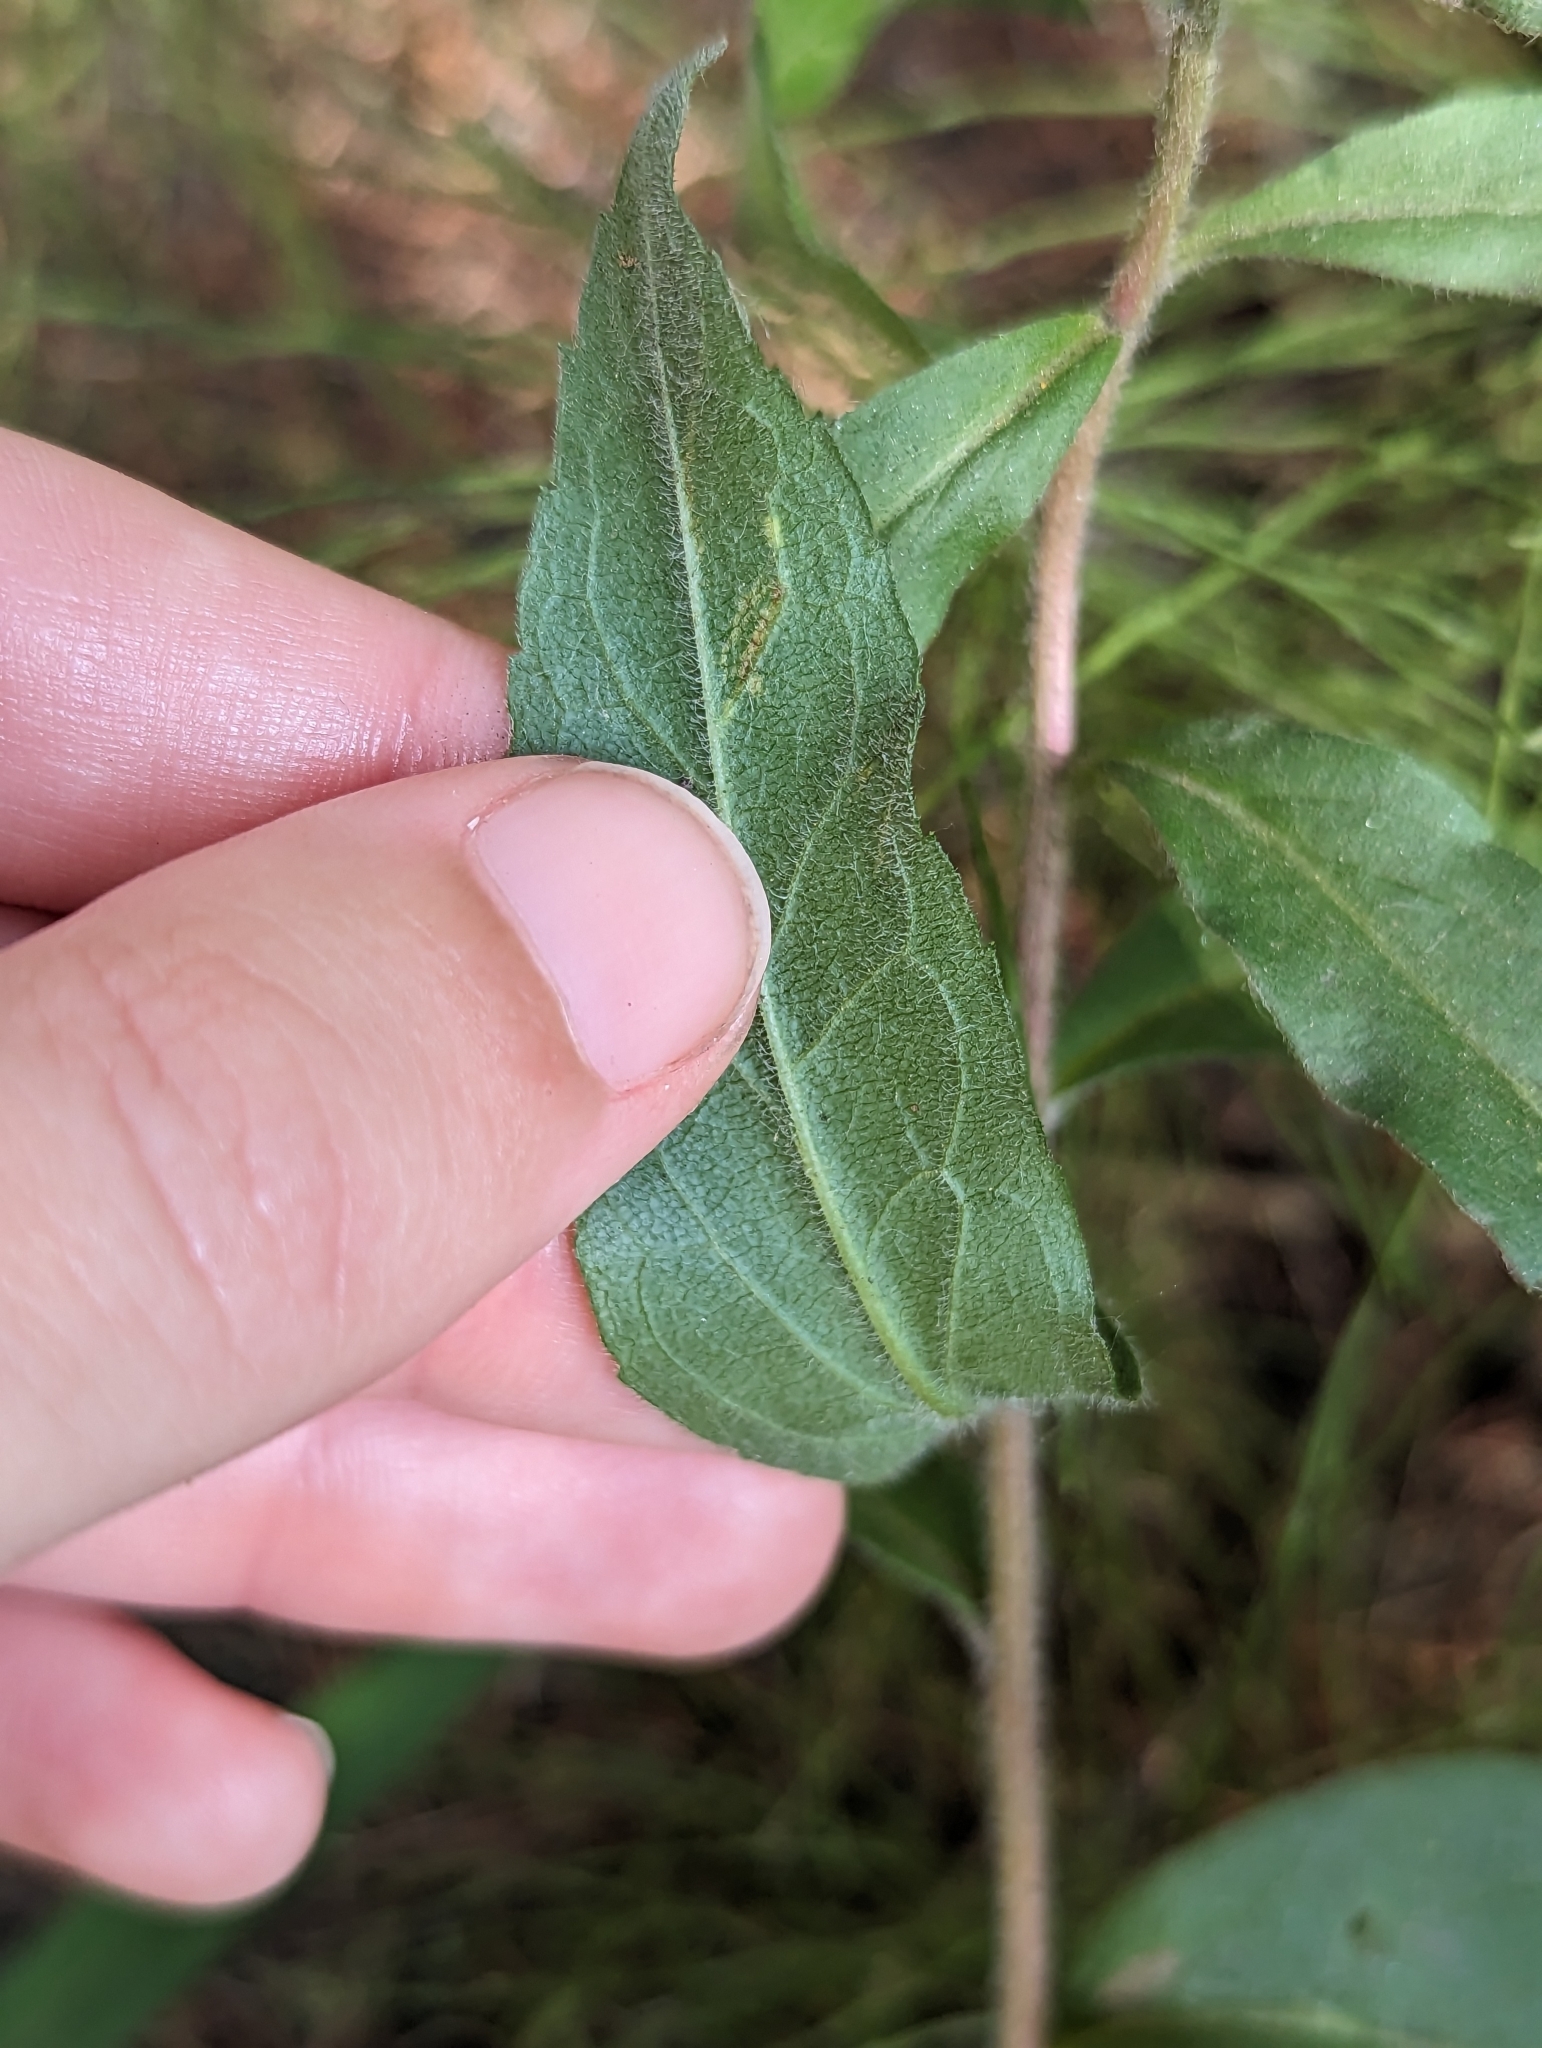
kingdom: Plantae
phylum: Tracheophyta
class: Magnoliopsida
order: Asterales
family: Asteraceae
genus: Eurybia
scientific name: Eurybia sibirica
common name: Arctic aster
